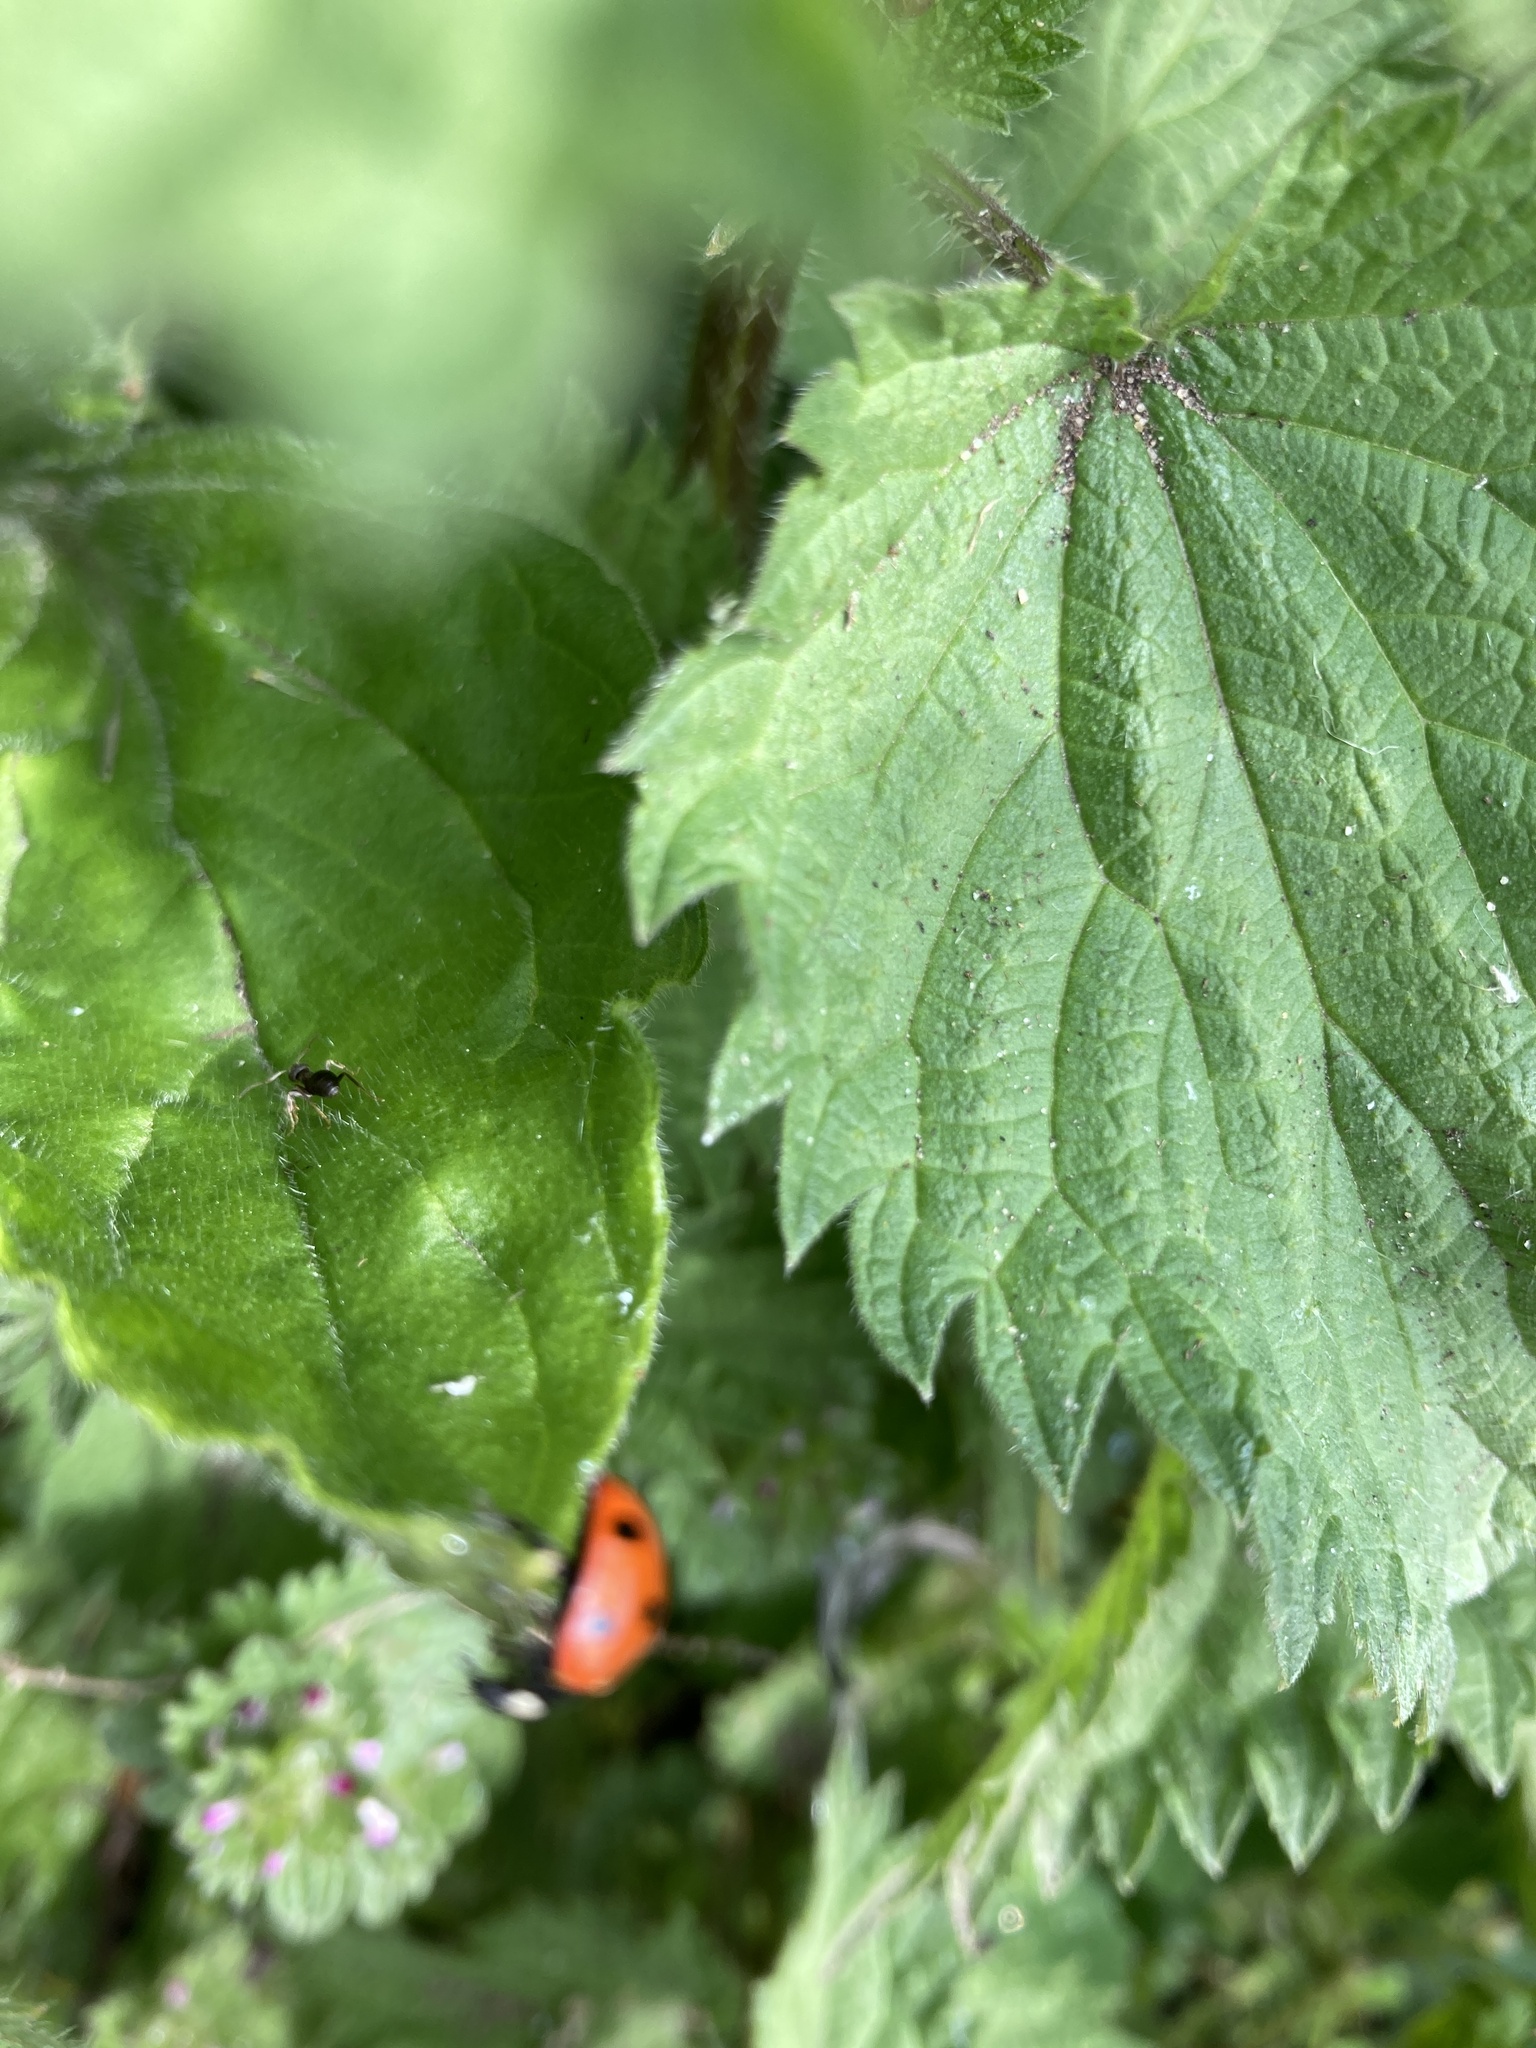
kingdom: Animalia
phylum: Arthropoda
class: Insecta
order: Coleoptera
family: Coccinellidae
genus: Coccinella
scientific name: Coccinella septempunctata
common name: Sevenspotted lady beetle
